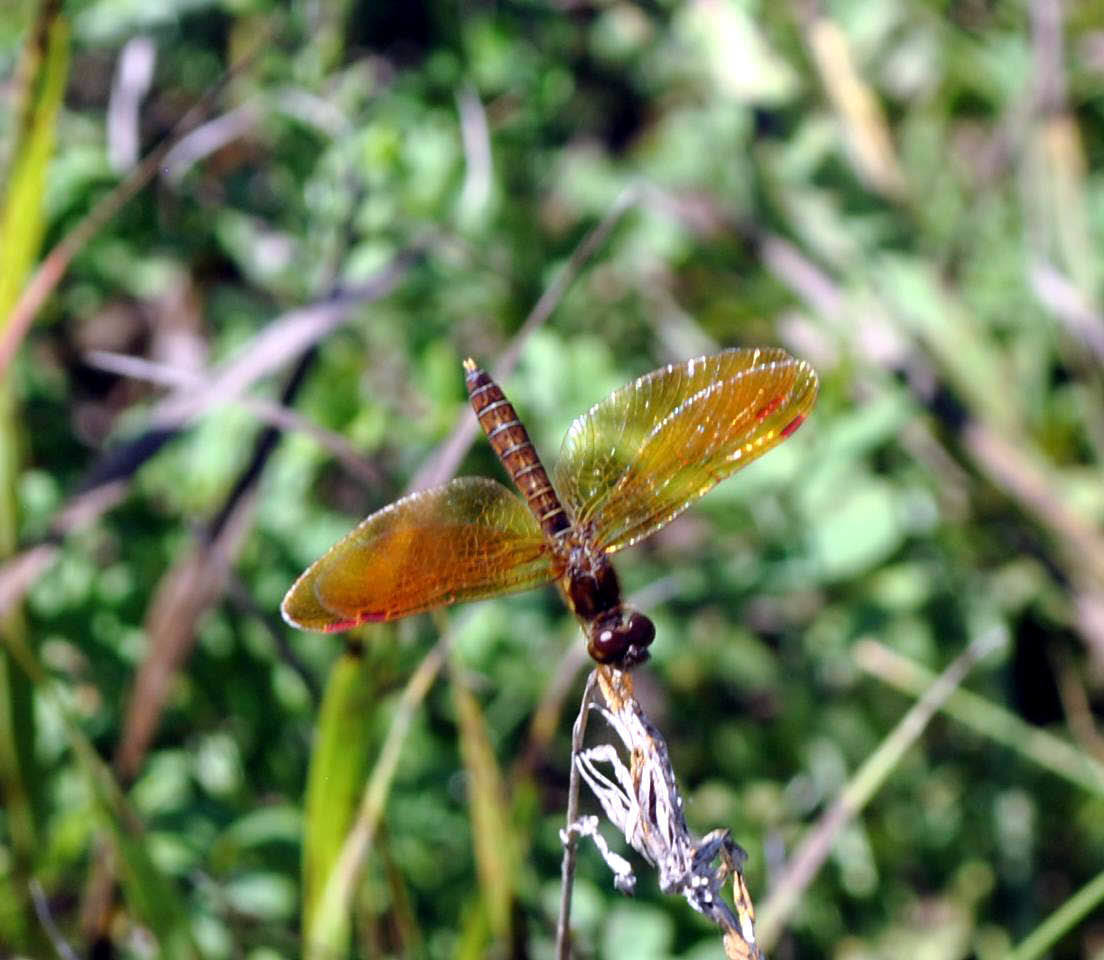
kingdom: Animalia
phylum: Arthropoda
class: Insecta
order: Odonata
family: Libellulidae
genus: Perithemis
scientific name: Perithemis tenera
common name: Eastern amberwing
